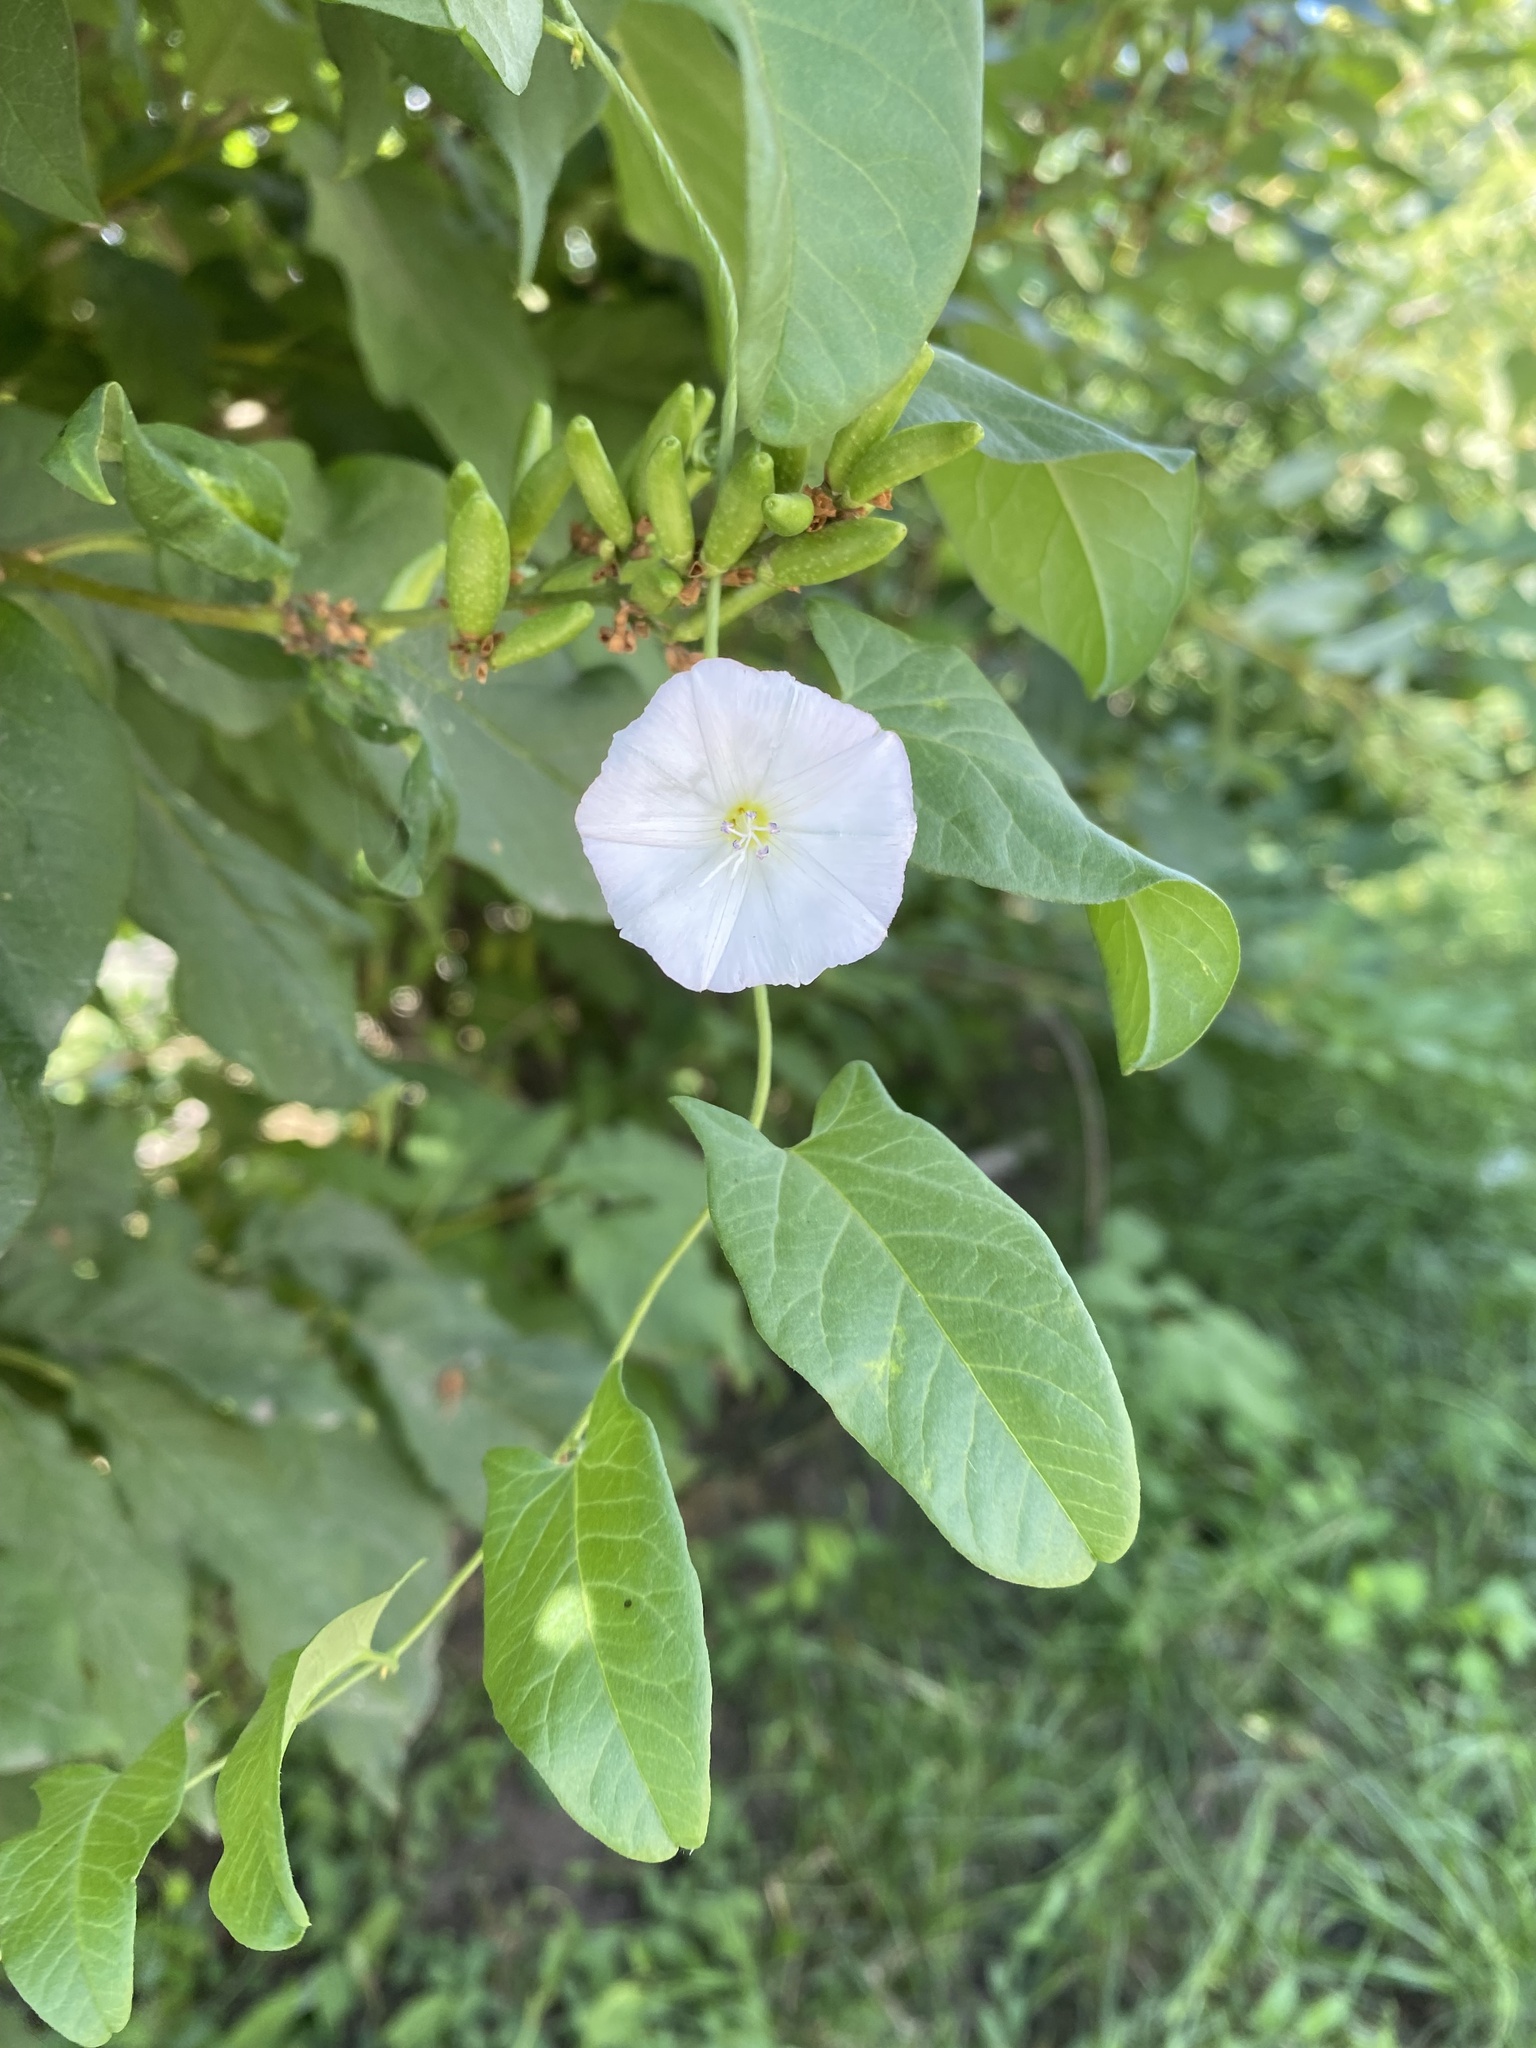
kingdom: Plantae
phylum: Tracheophyta
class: Magnoliopsida
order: Solanales
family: Convolvulaceae
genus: Convolvulus
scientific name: Convolvulus arvensis
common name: Field bindweed
